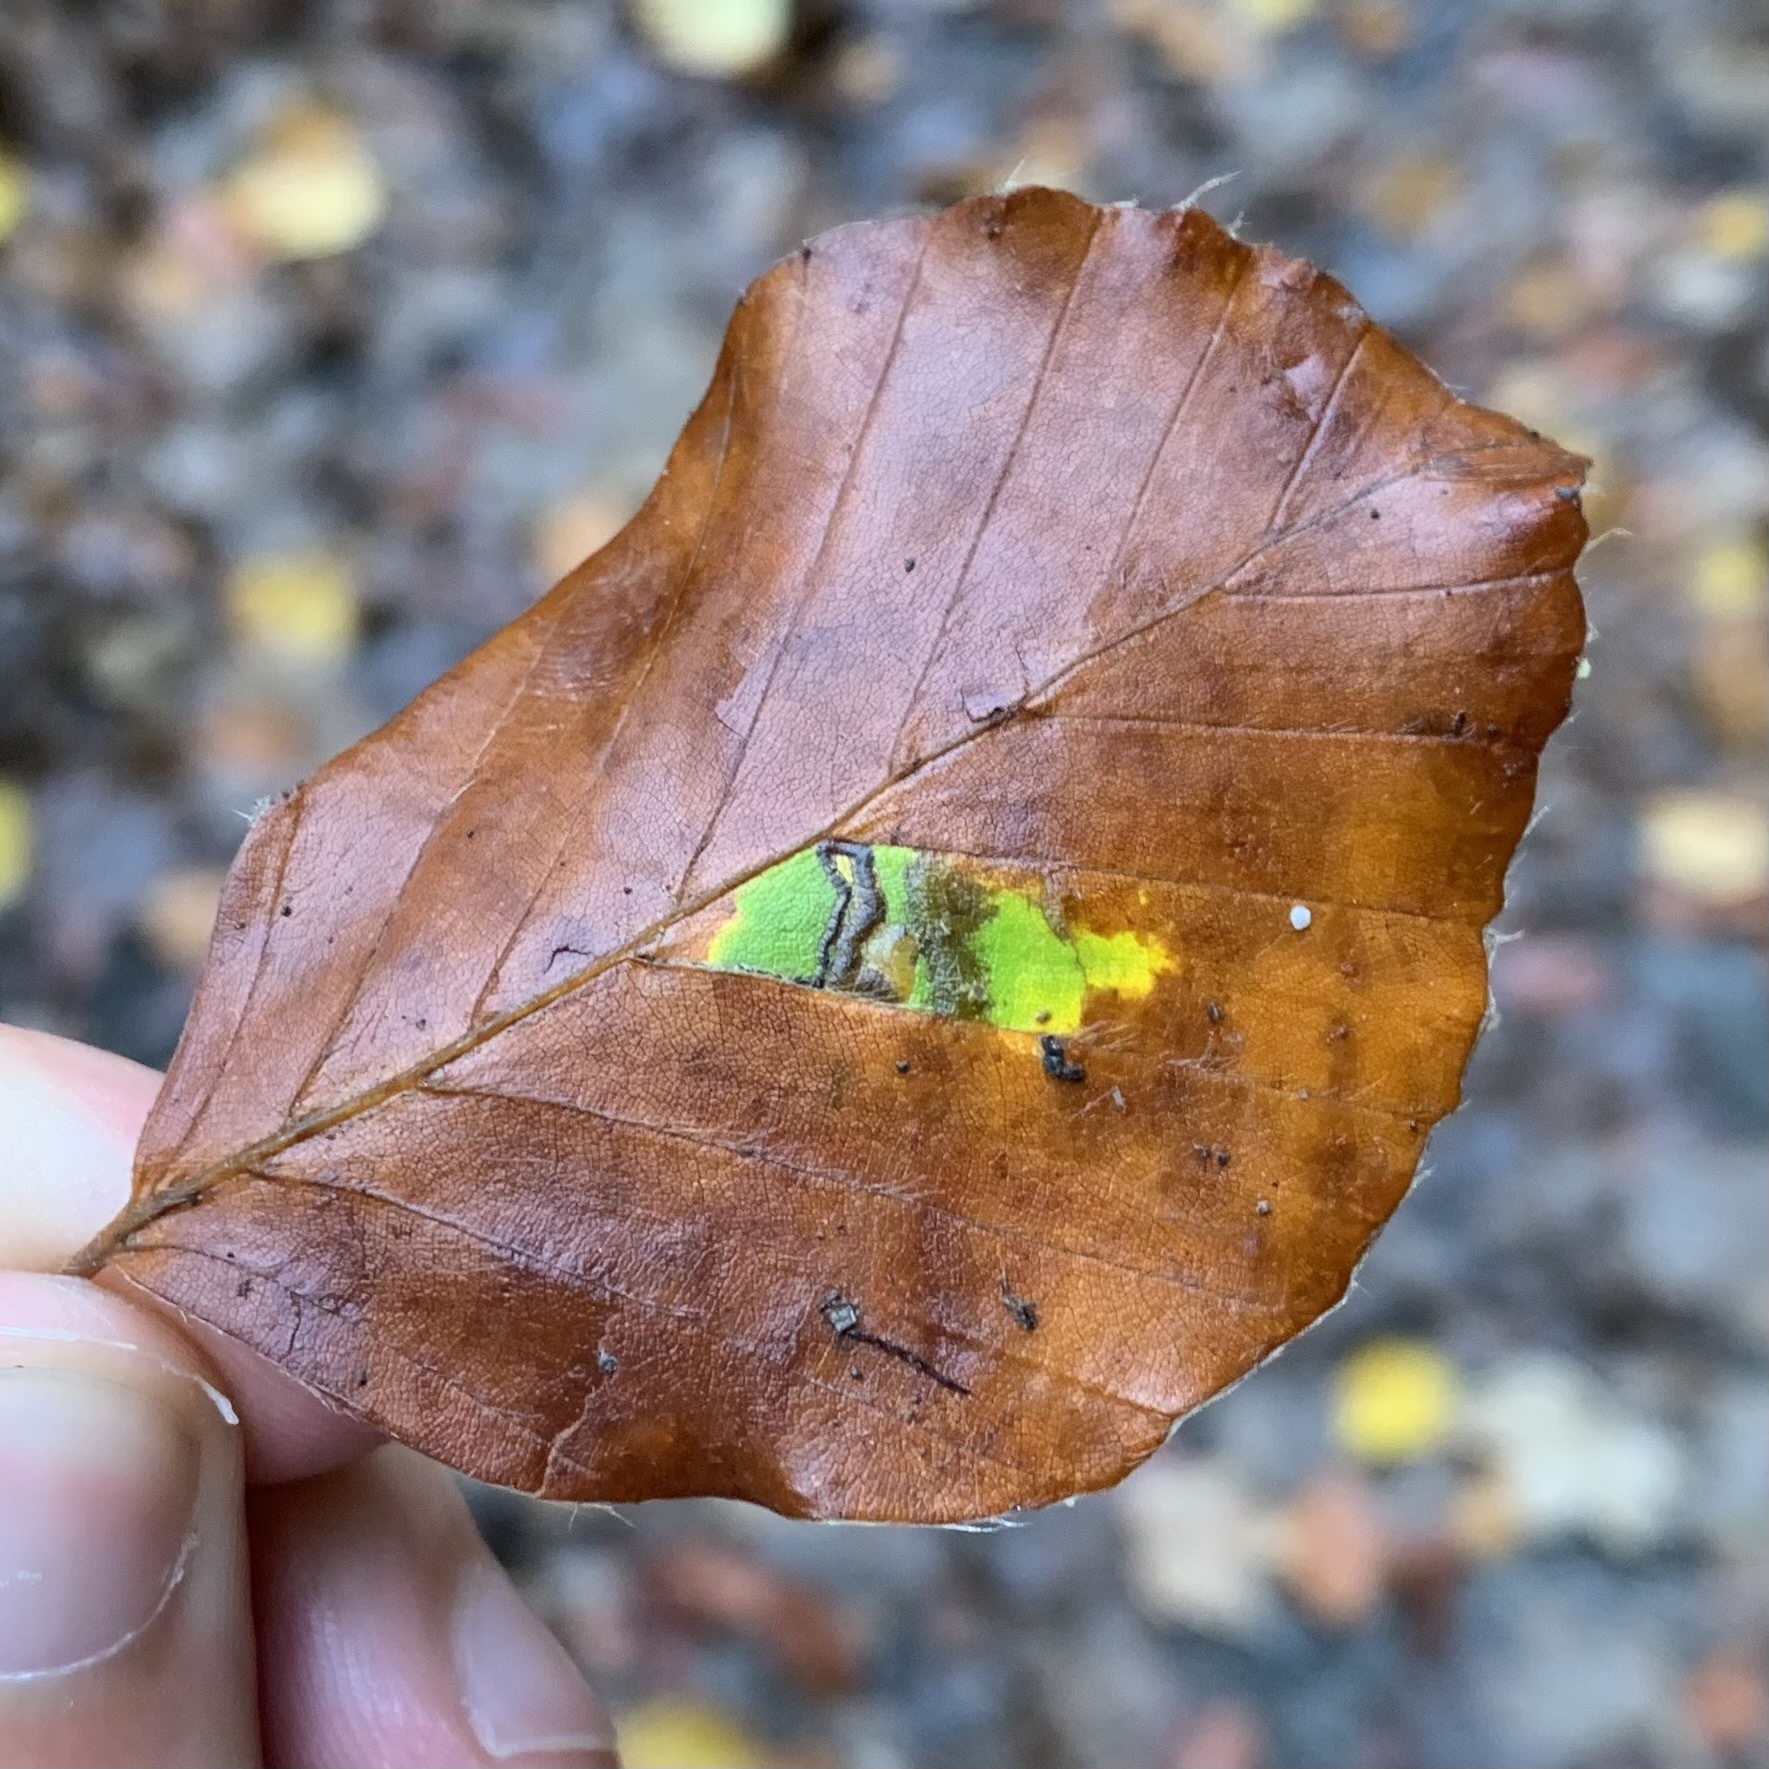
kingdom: Animalia
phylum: Arthropoda
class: Insecta
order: Lepidoptera
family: Nepticulidae
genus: Stigmella
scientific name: Stigmella tityrella
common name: Small beech pigmy
